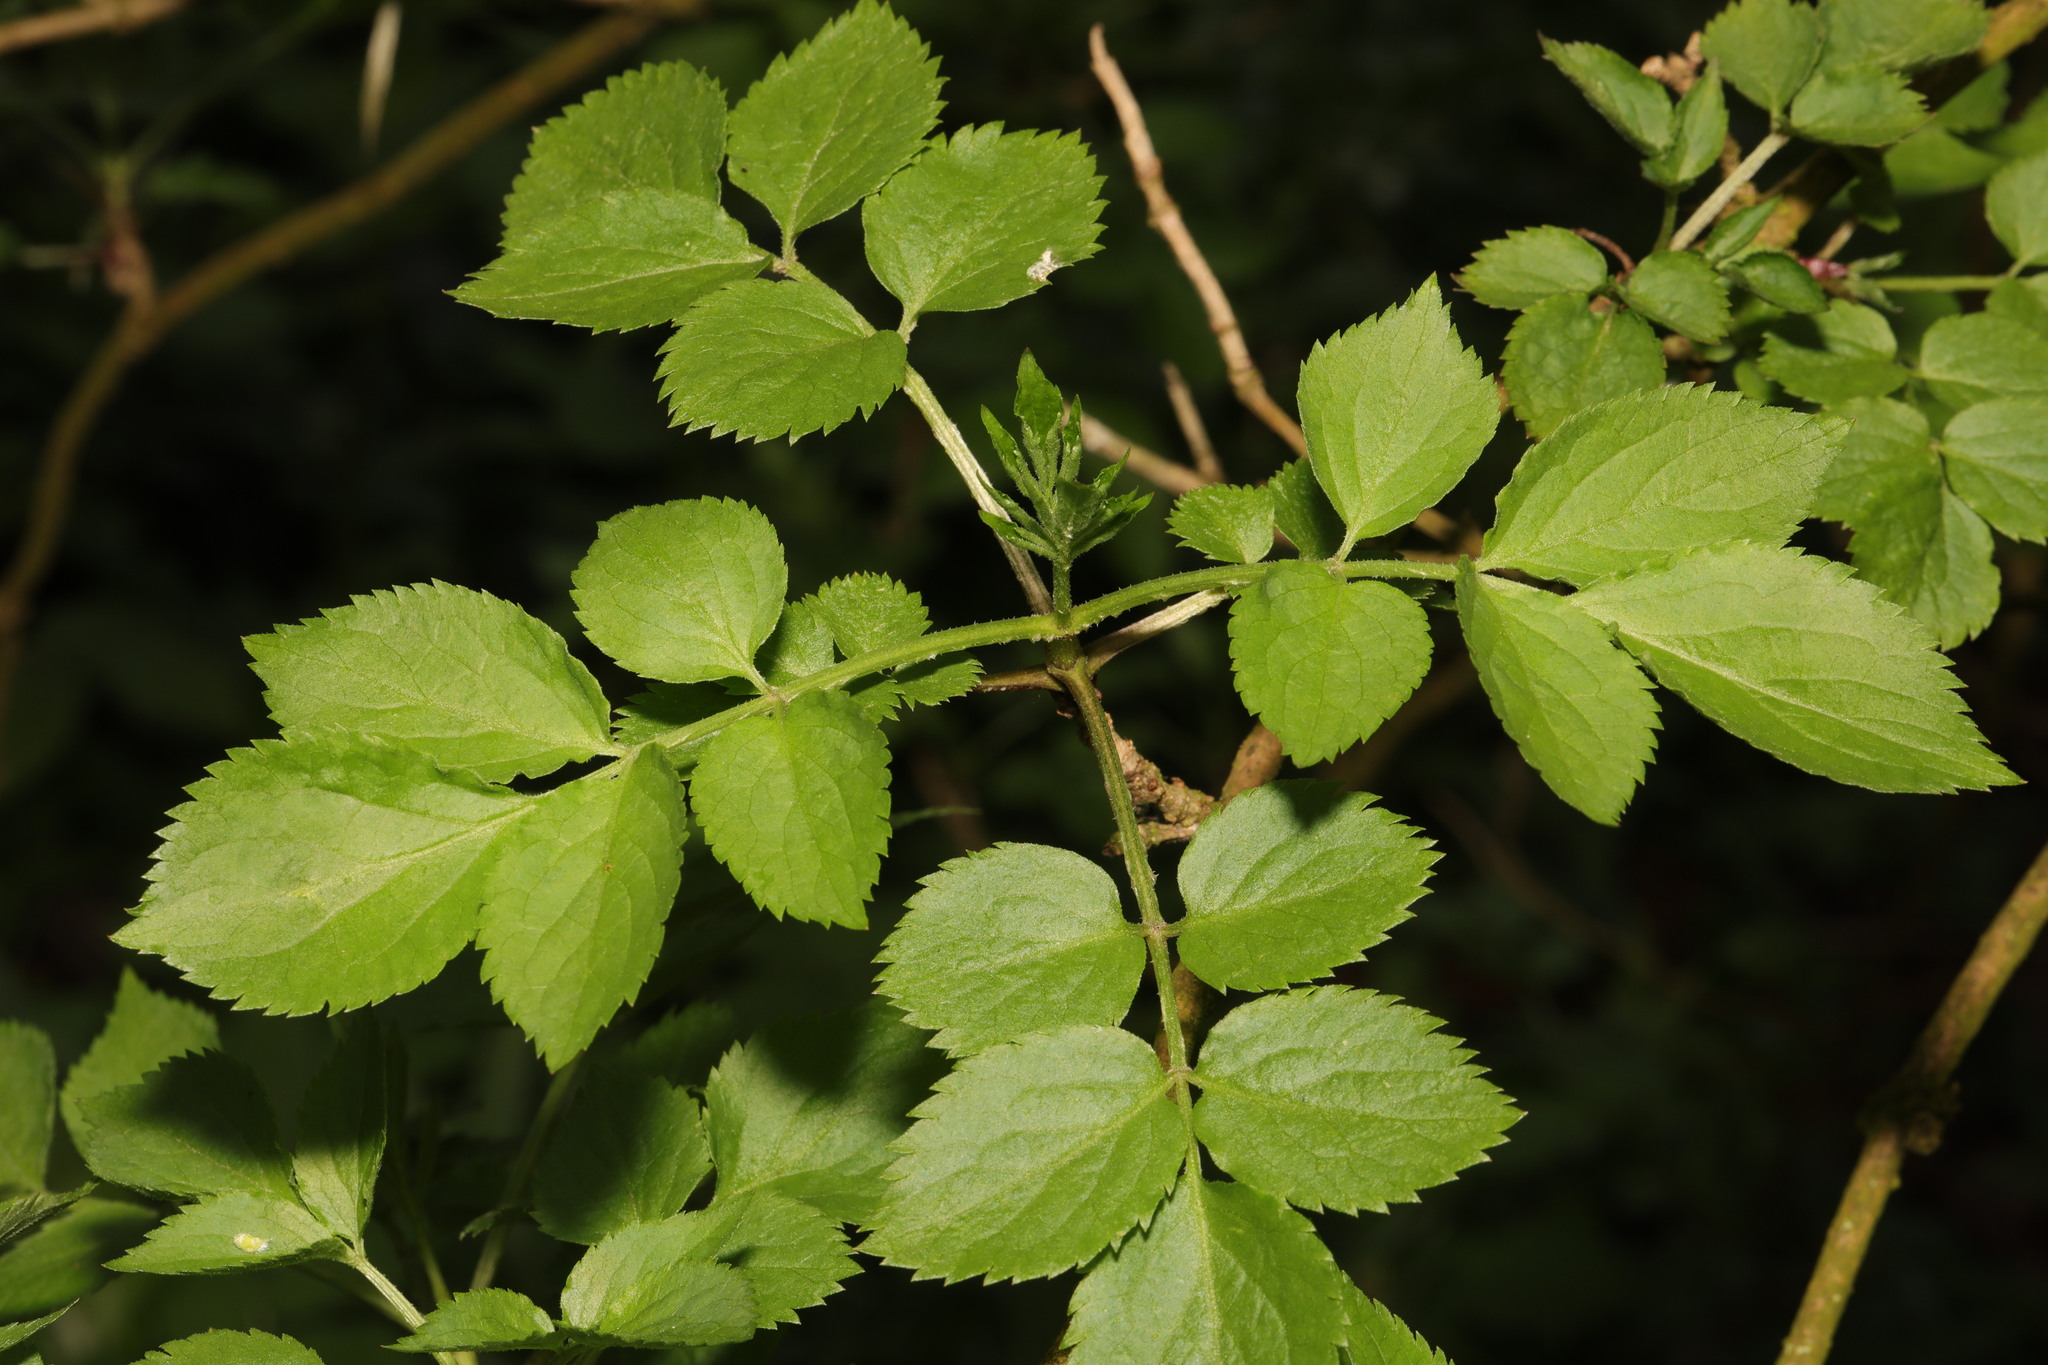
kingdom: Plantae
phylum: Tracheophyta
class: Magnoliopsida
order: Dipsacales
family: Viburnaceae
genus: Sambucus
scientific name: Sambucus nigra
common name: Elder
